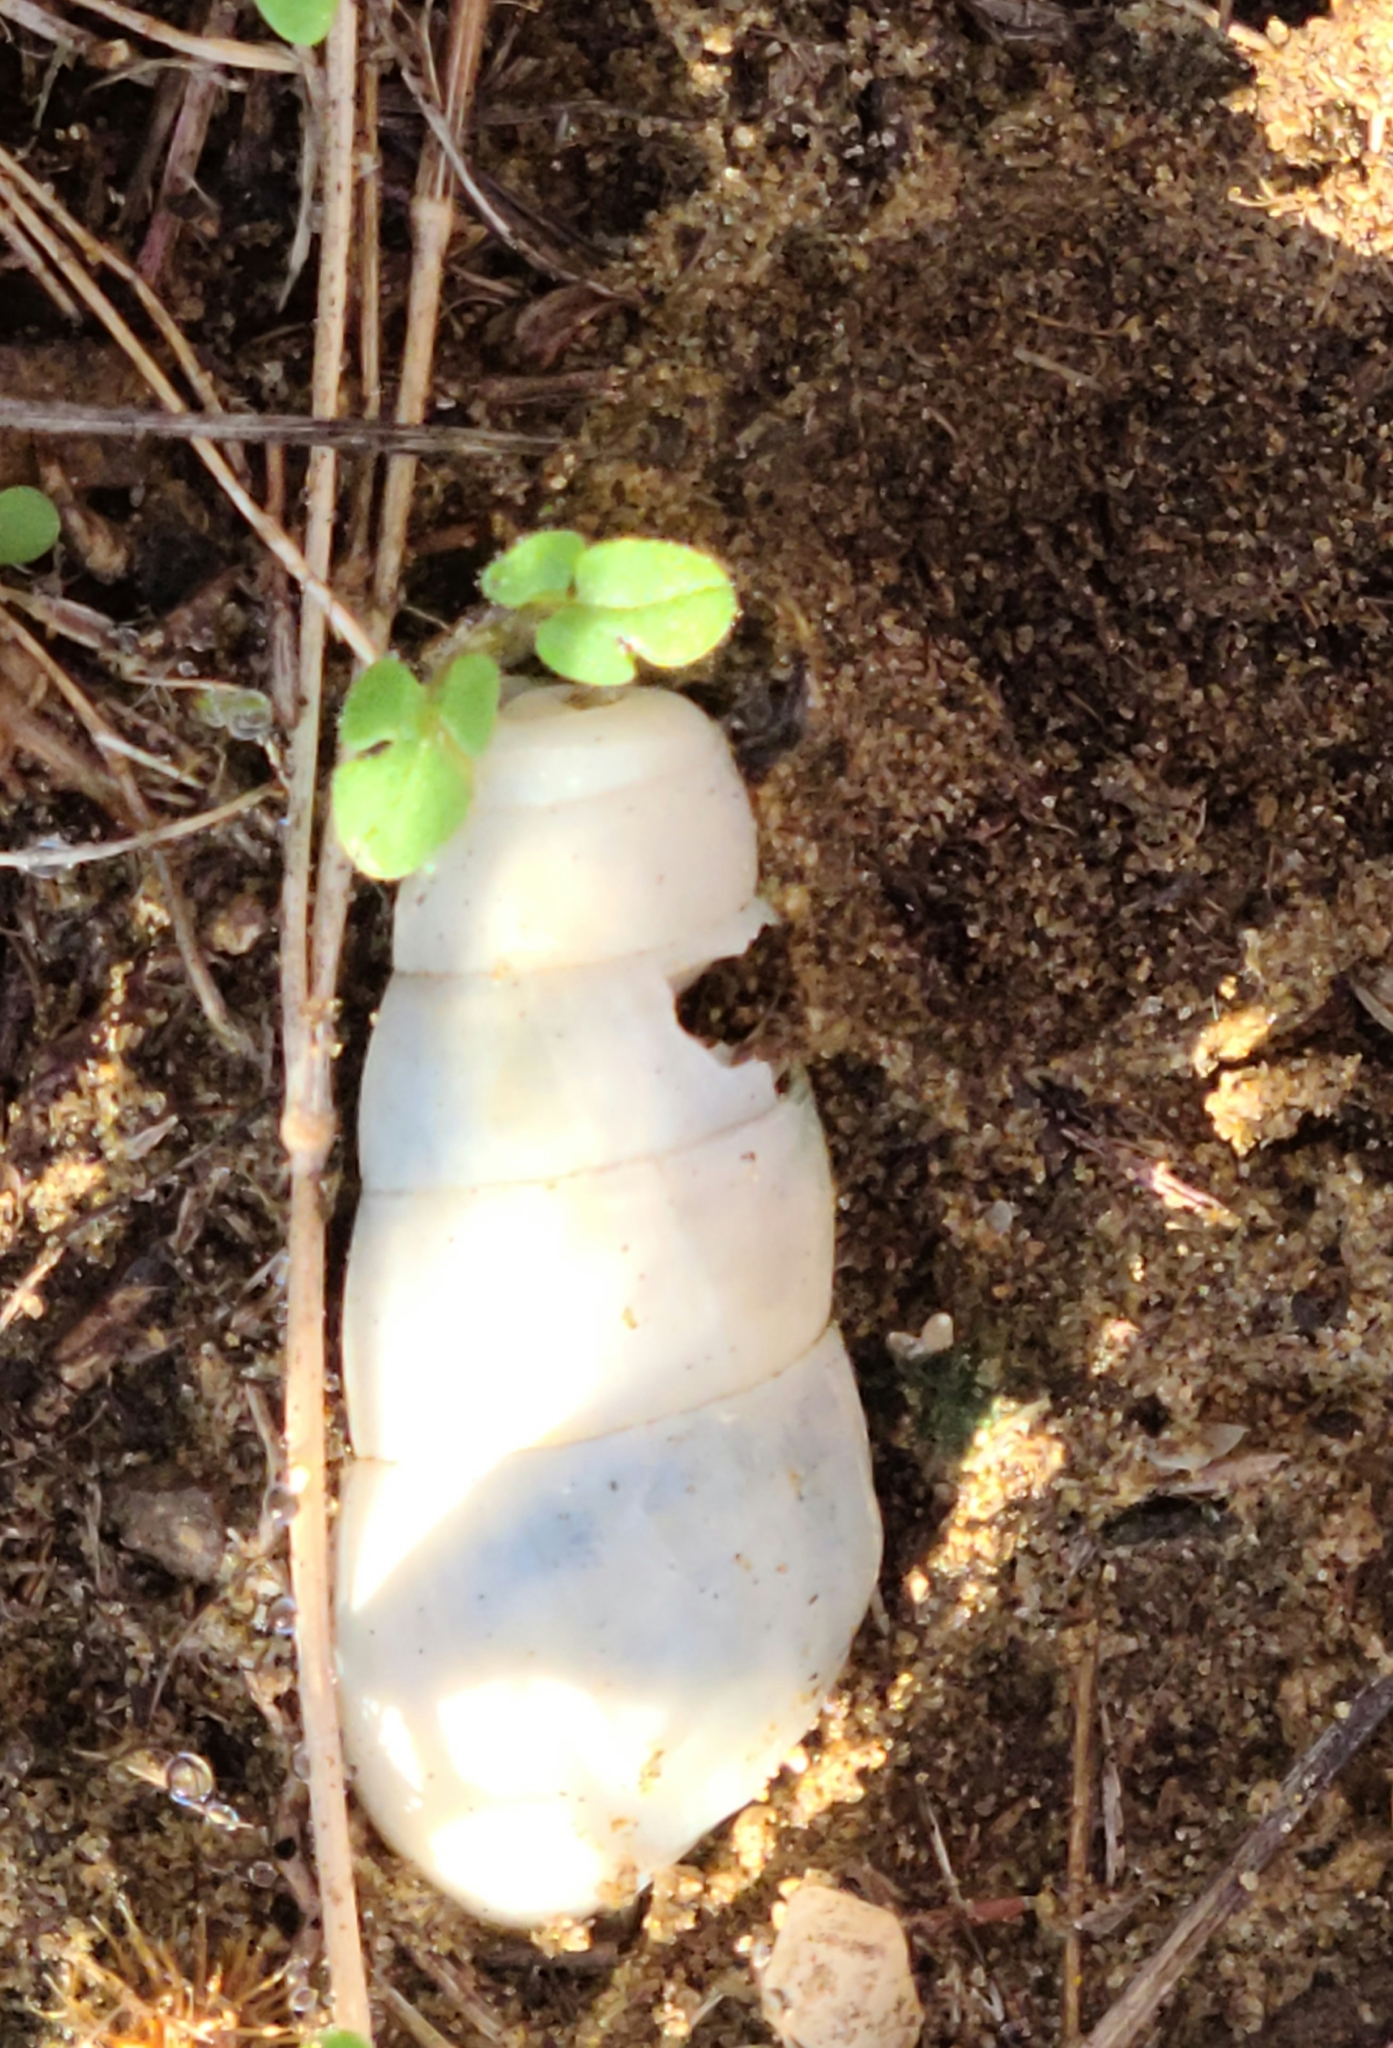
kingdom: Animalia
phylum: Mollusca
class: Gastropoda
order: Stylommatophora
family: Achatinidae
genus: Rumina
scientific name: Rumina decollata
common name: Decollate snail
